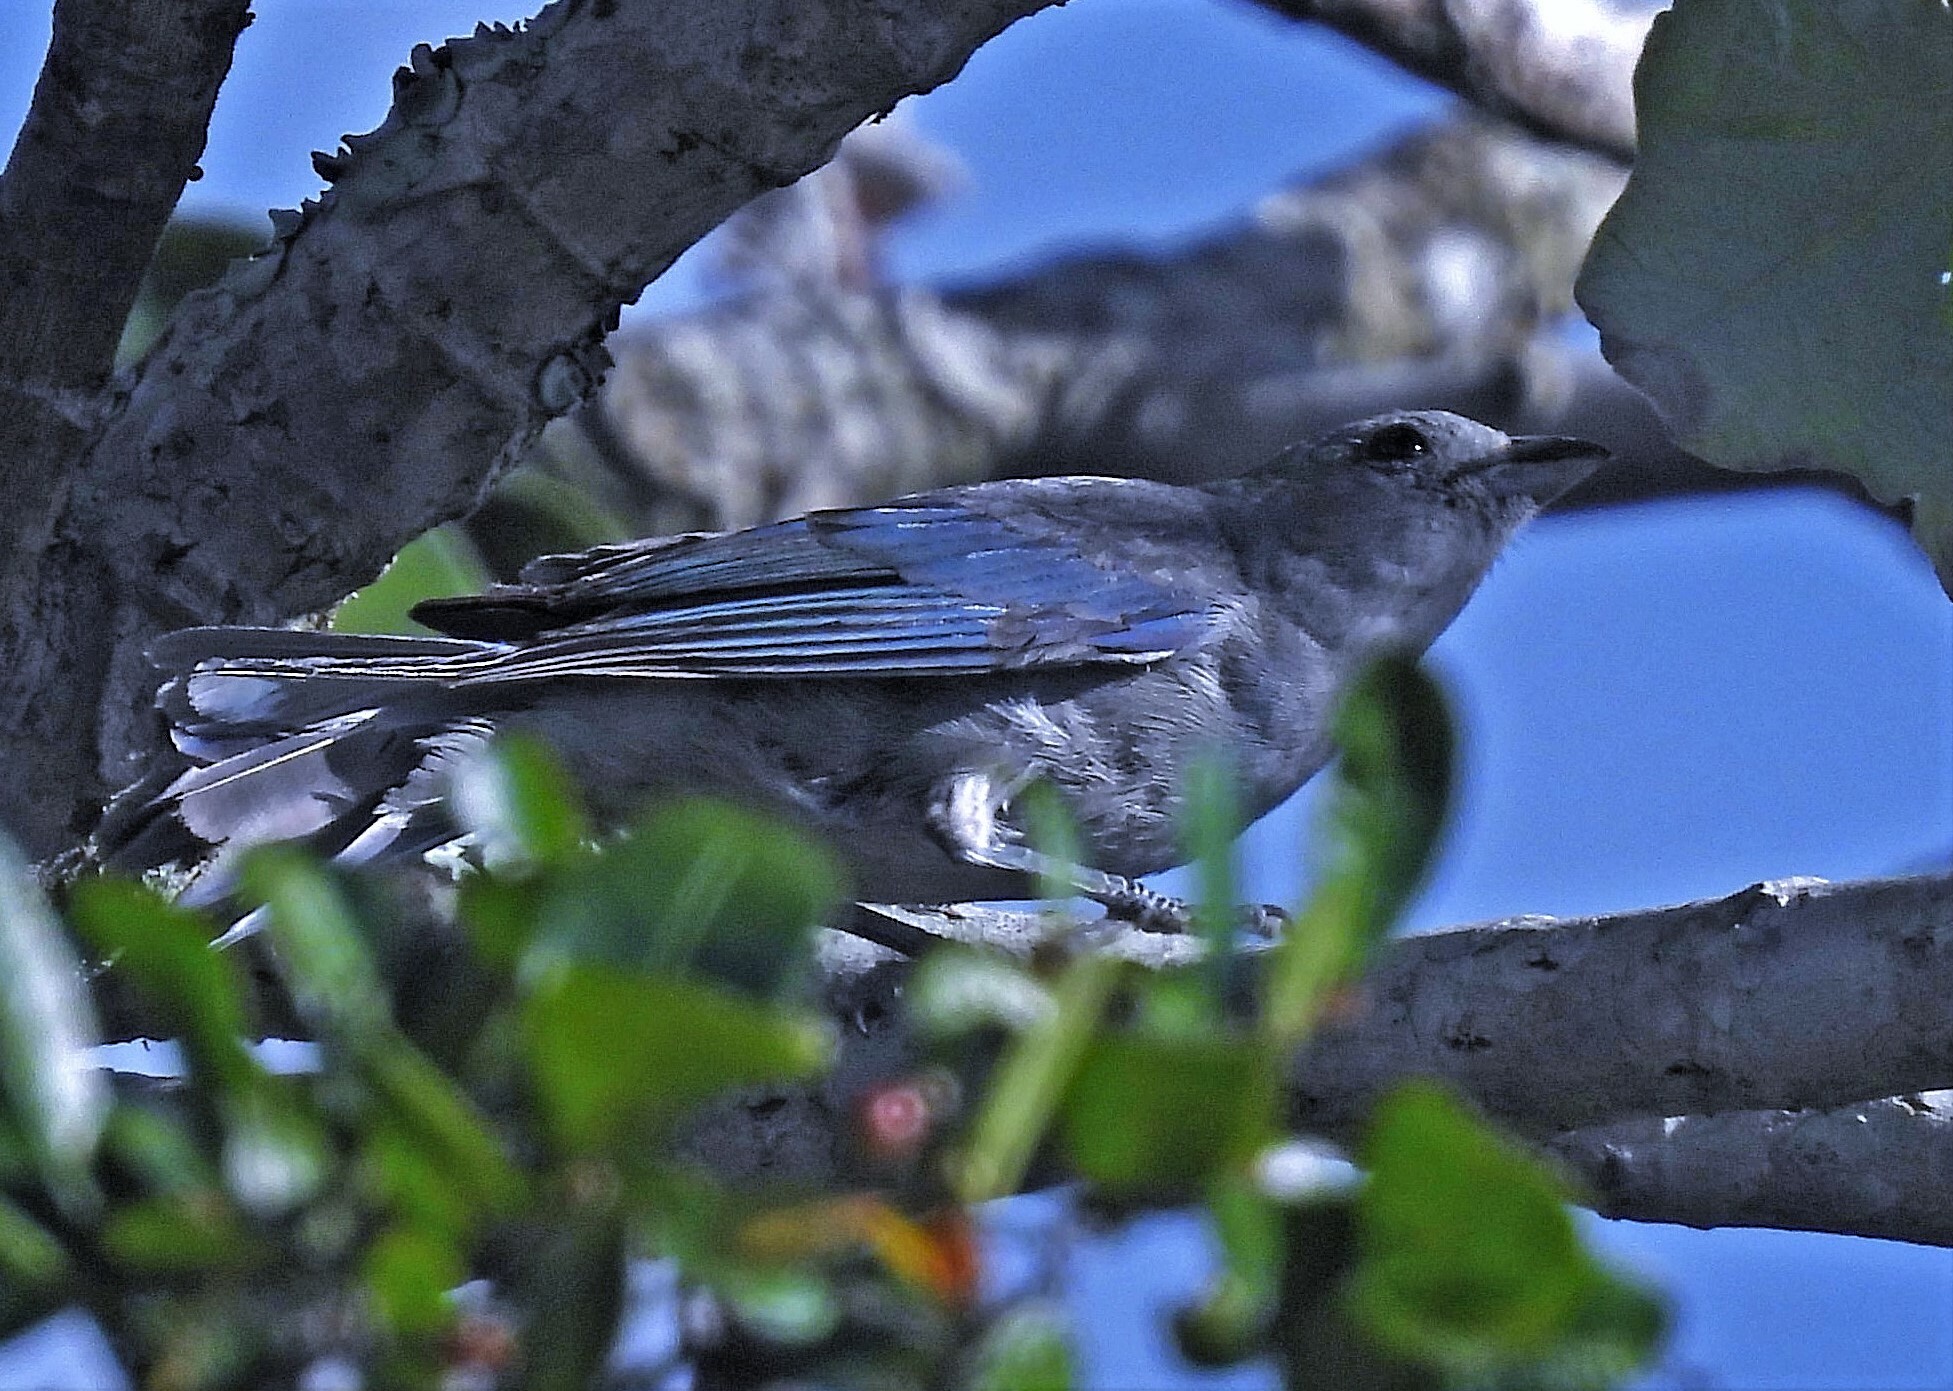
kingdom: Animalia
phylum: Chordata
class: Aves
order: Passeriformes
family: Thraupidae
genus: Thraupis
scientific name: Thraupis sayaca
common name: Sayaca tanager
